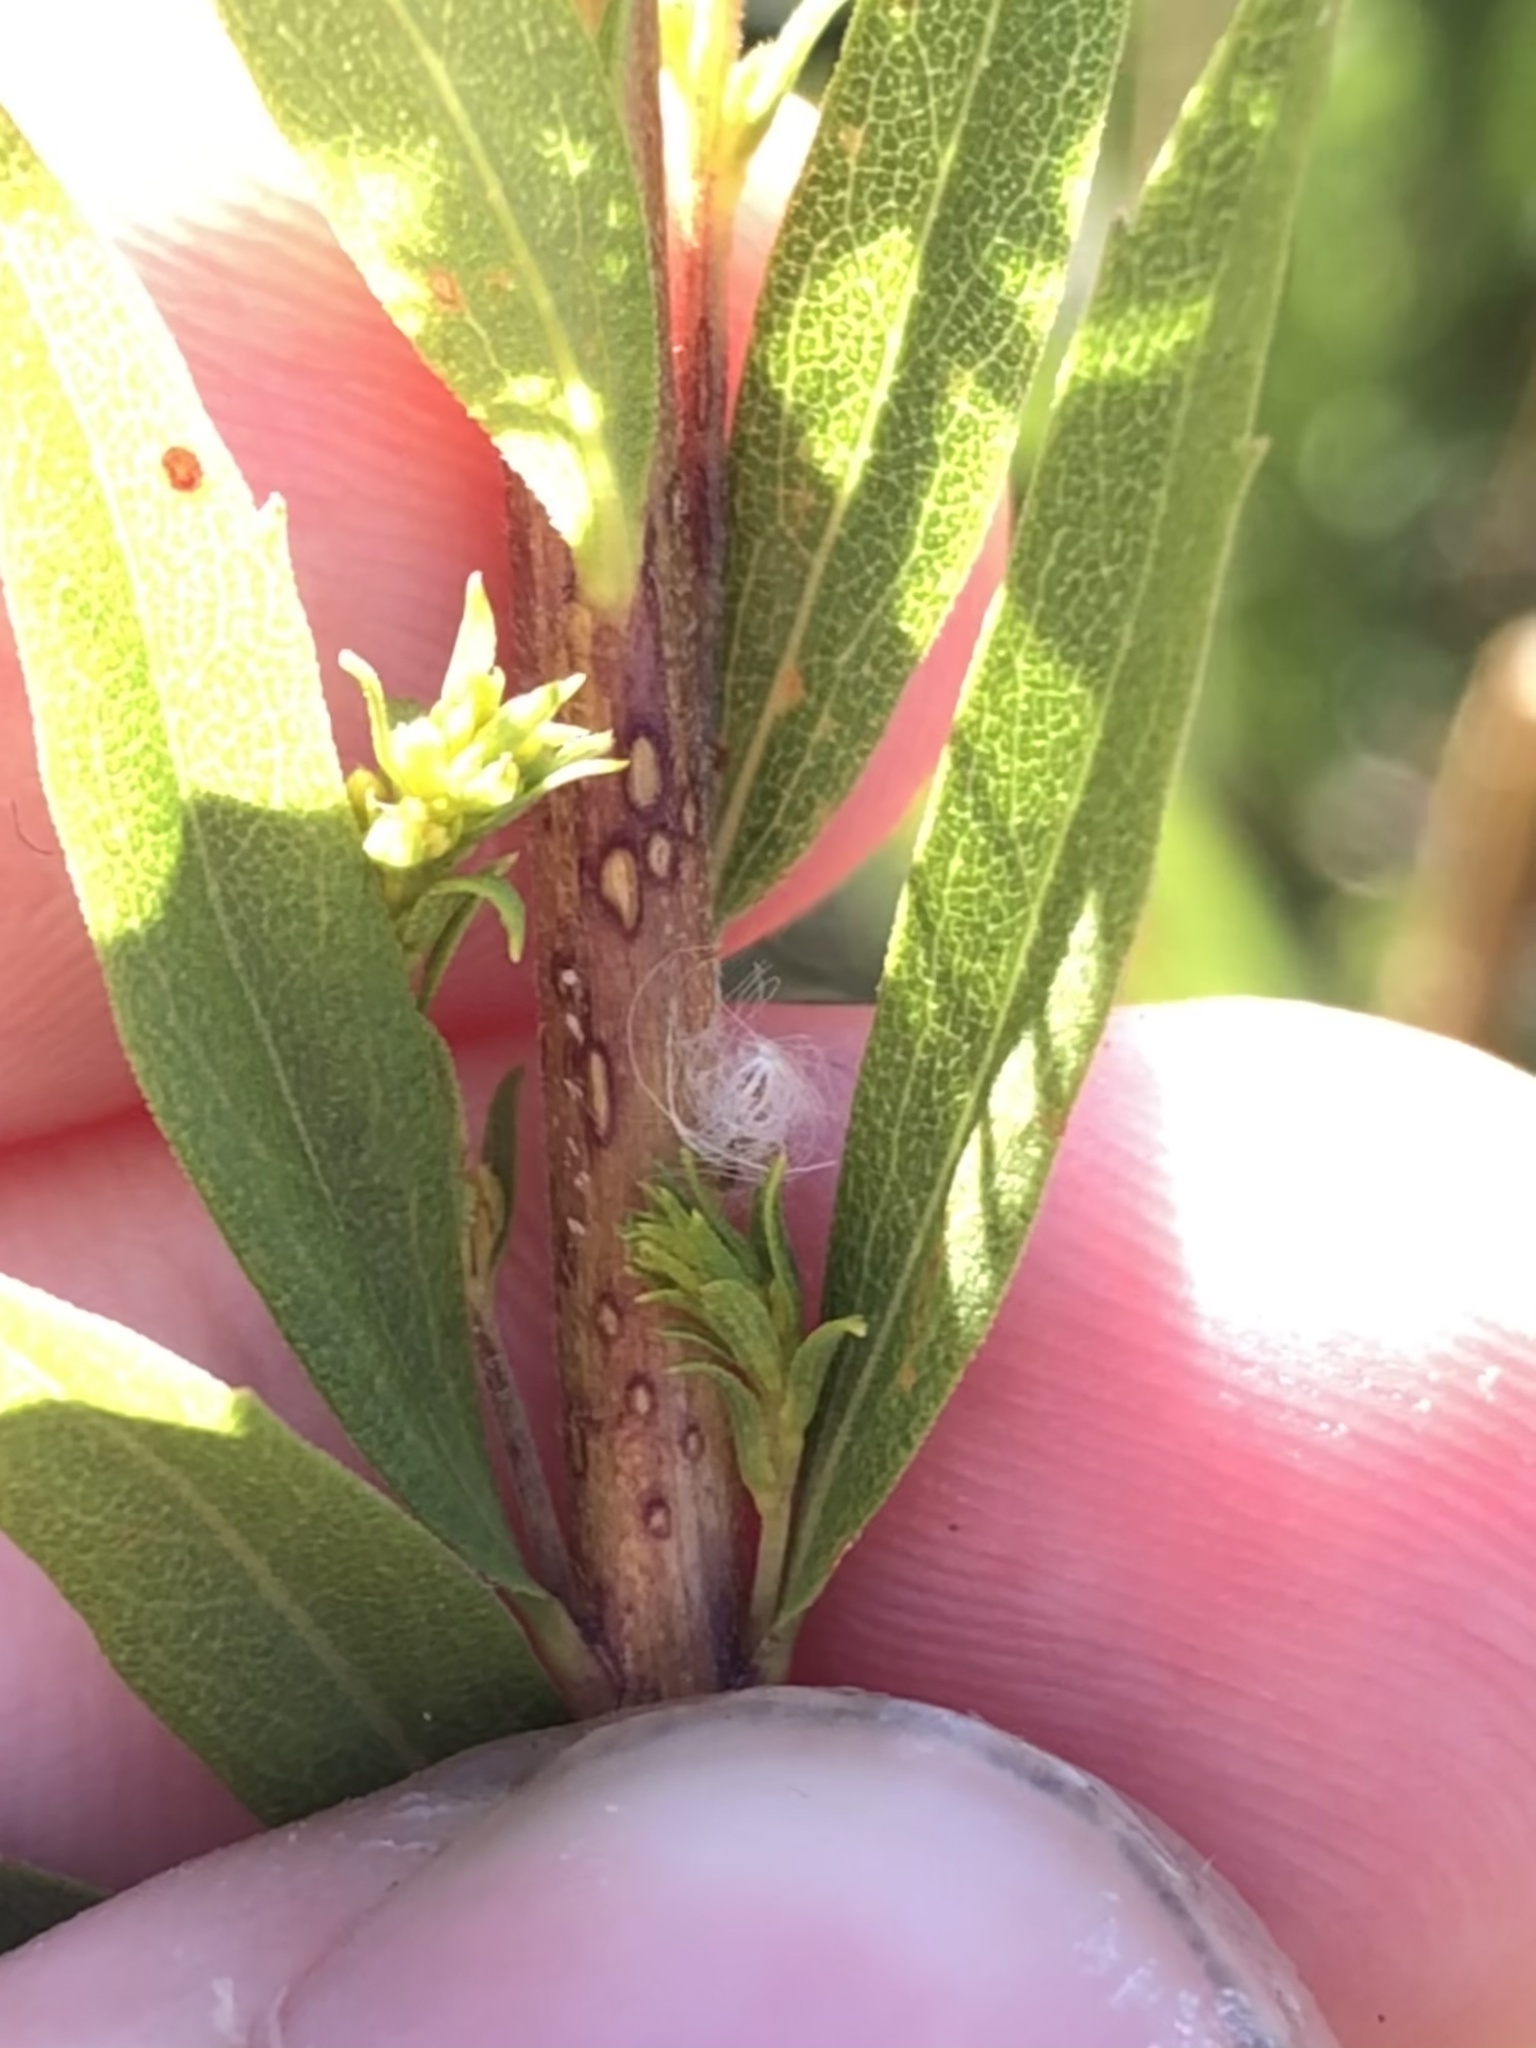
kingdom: Plantae
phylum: Tracheophyta
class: Magnoliopsida
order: Asterales
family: Asteraceae
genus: Solidago
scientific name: Solidago elongata
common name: Cascade canada goldenrod
